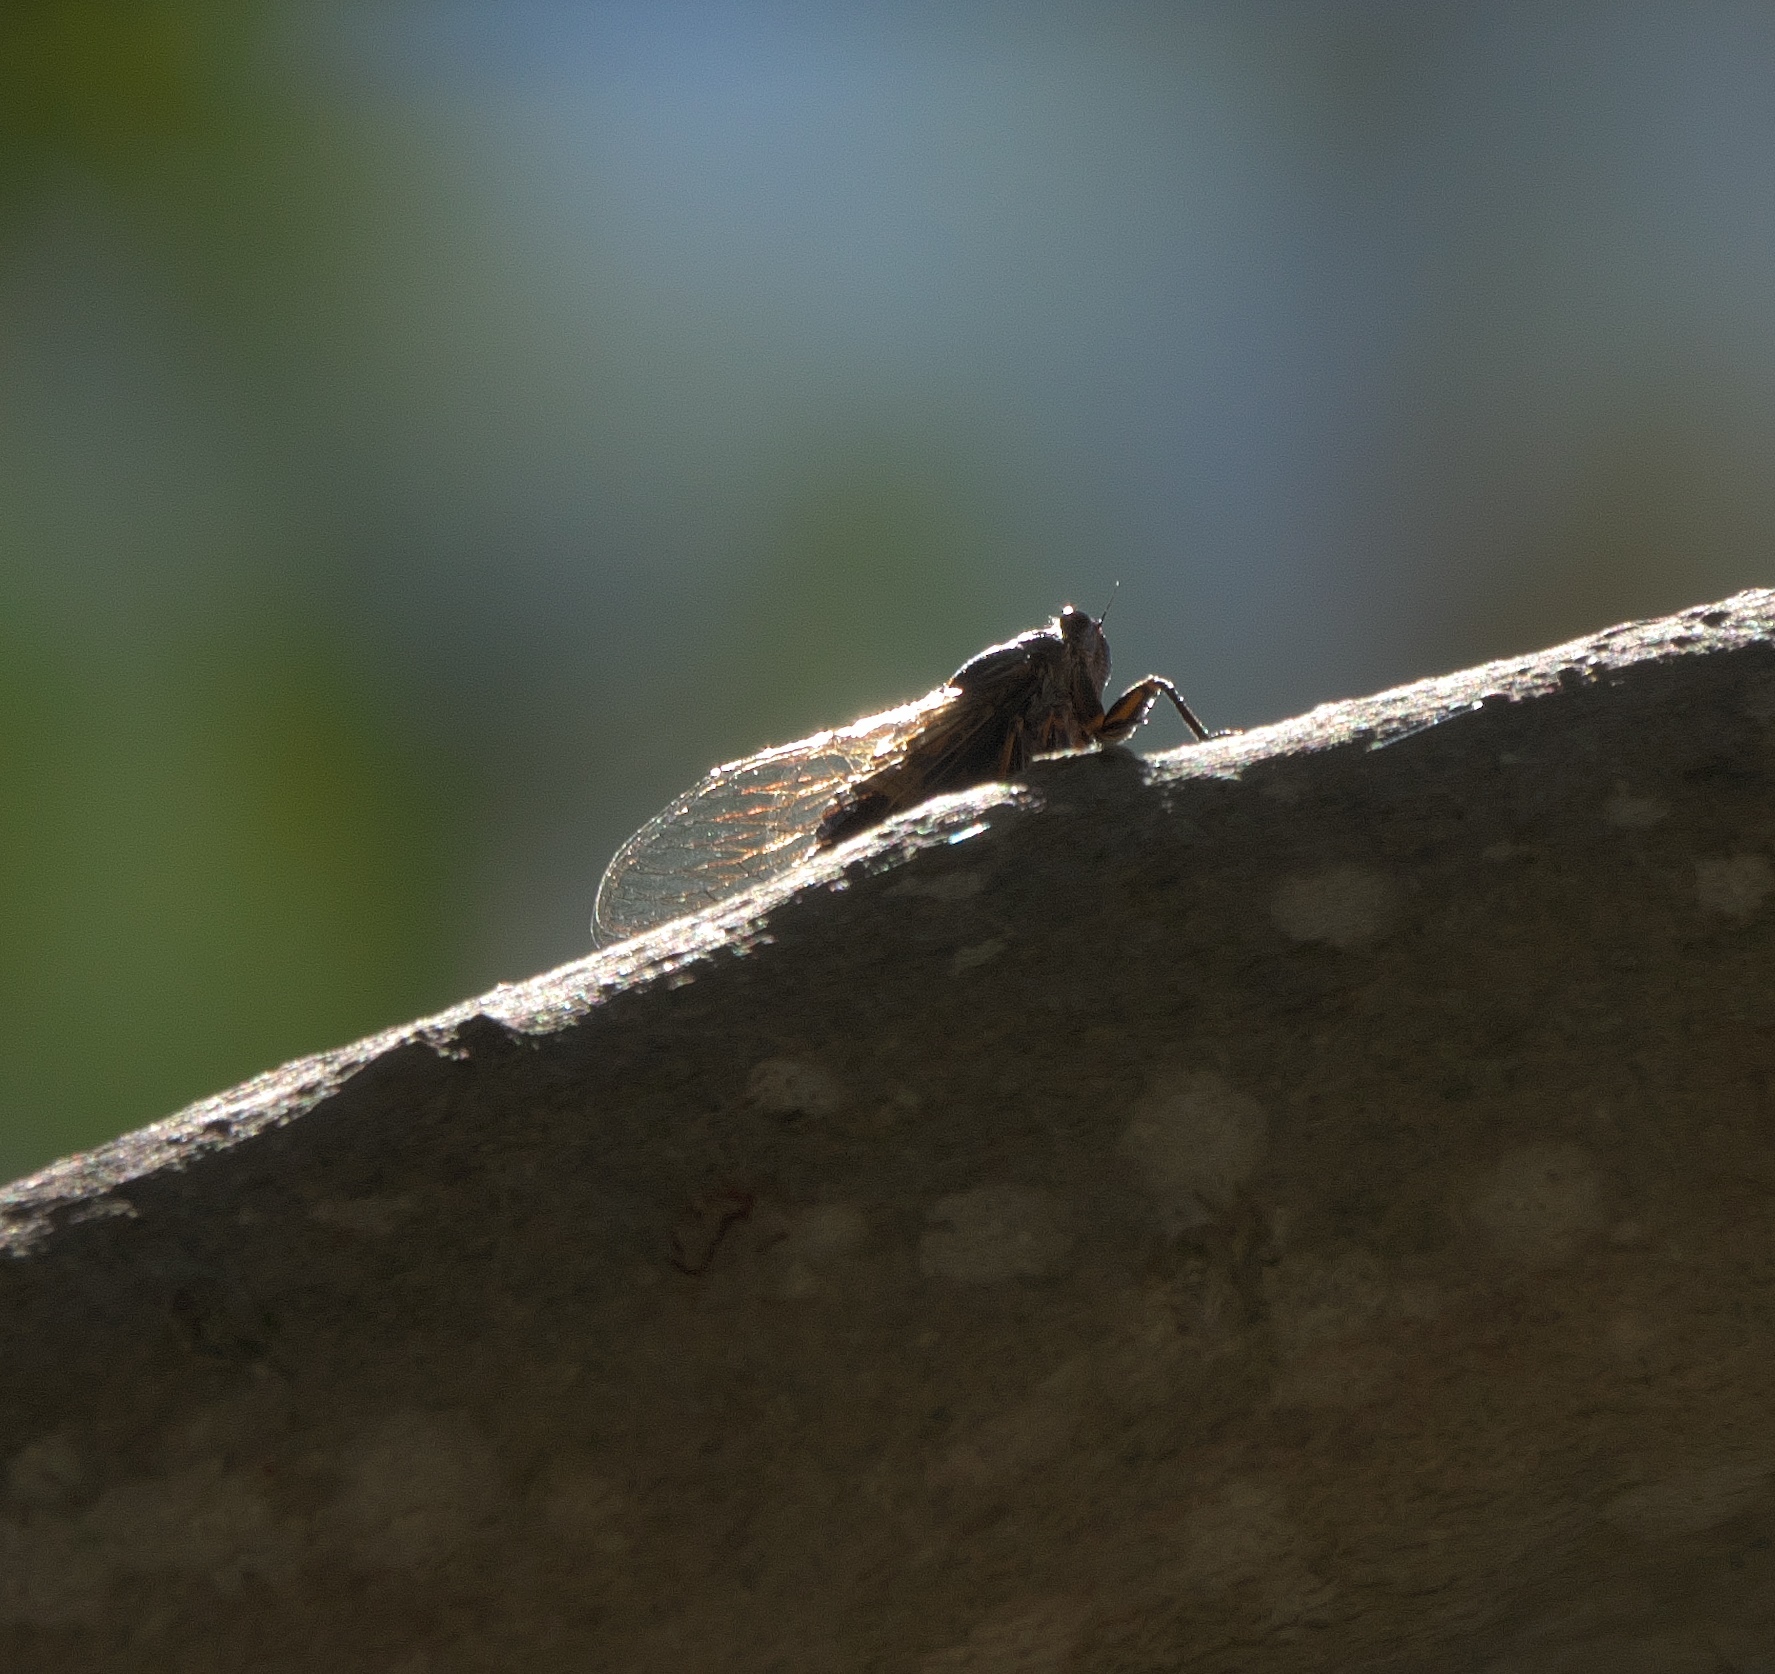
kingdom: Animalia
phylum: Arthropoda
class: Insecta
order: Hemiptera
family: Cicadidae
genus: Pyropsalta
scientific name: Pyropsalta melete
